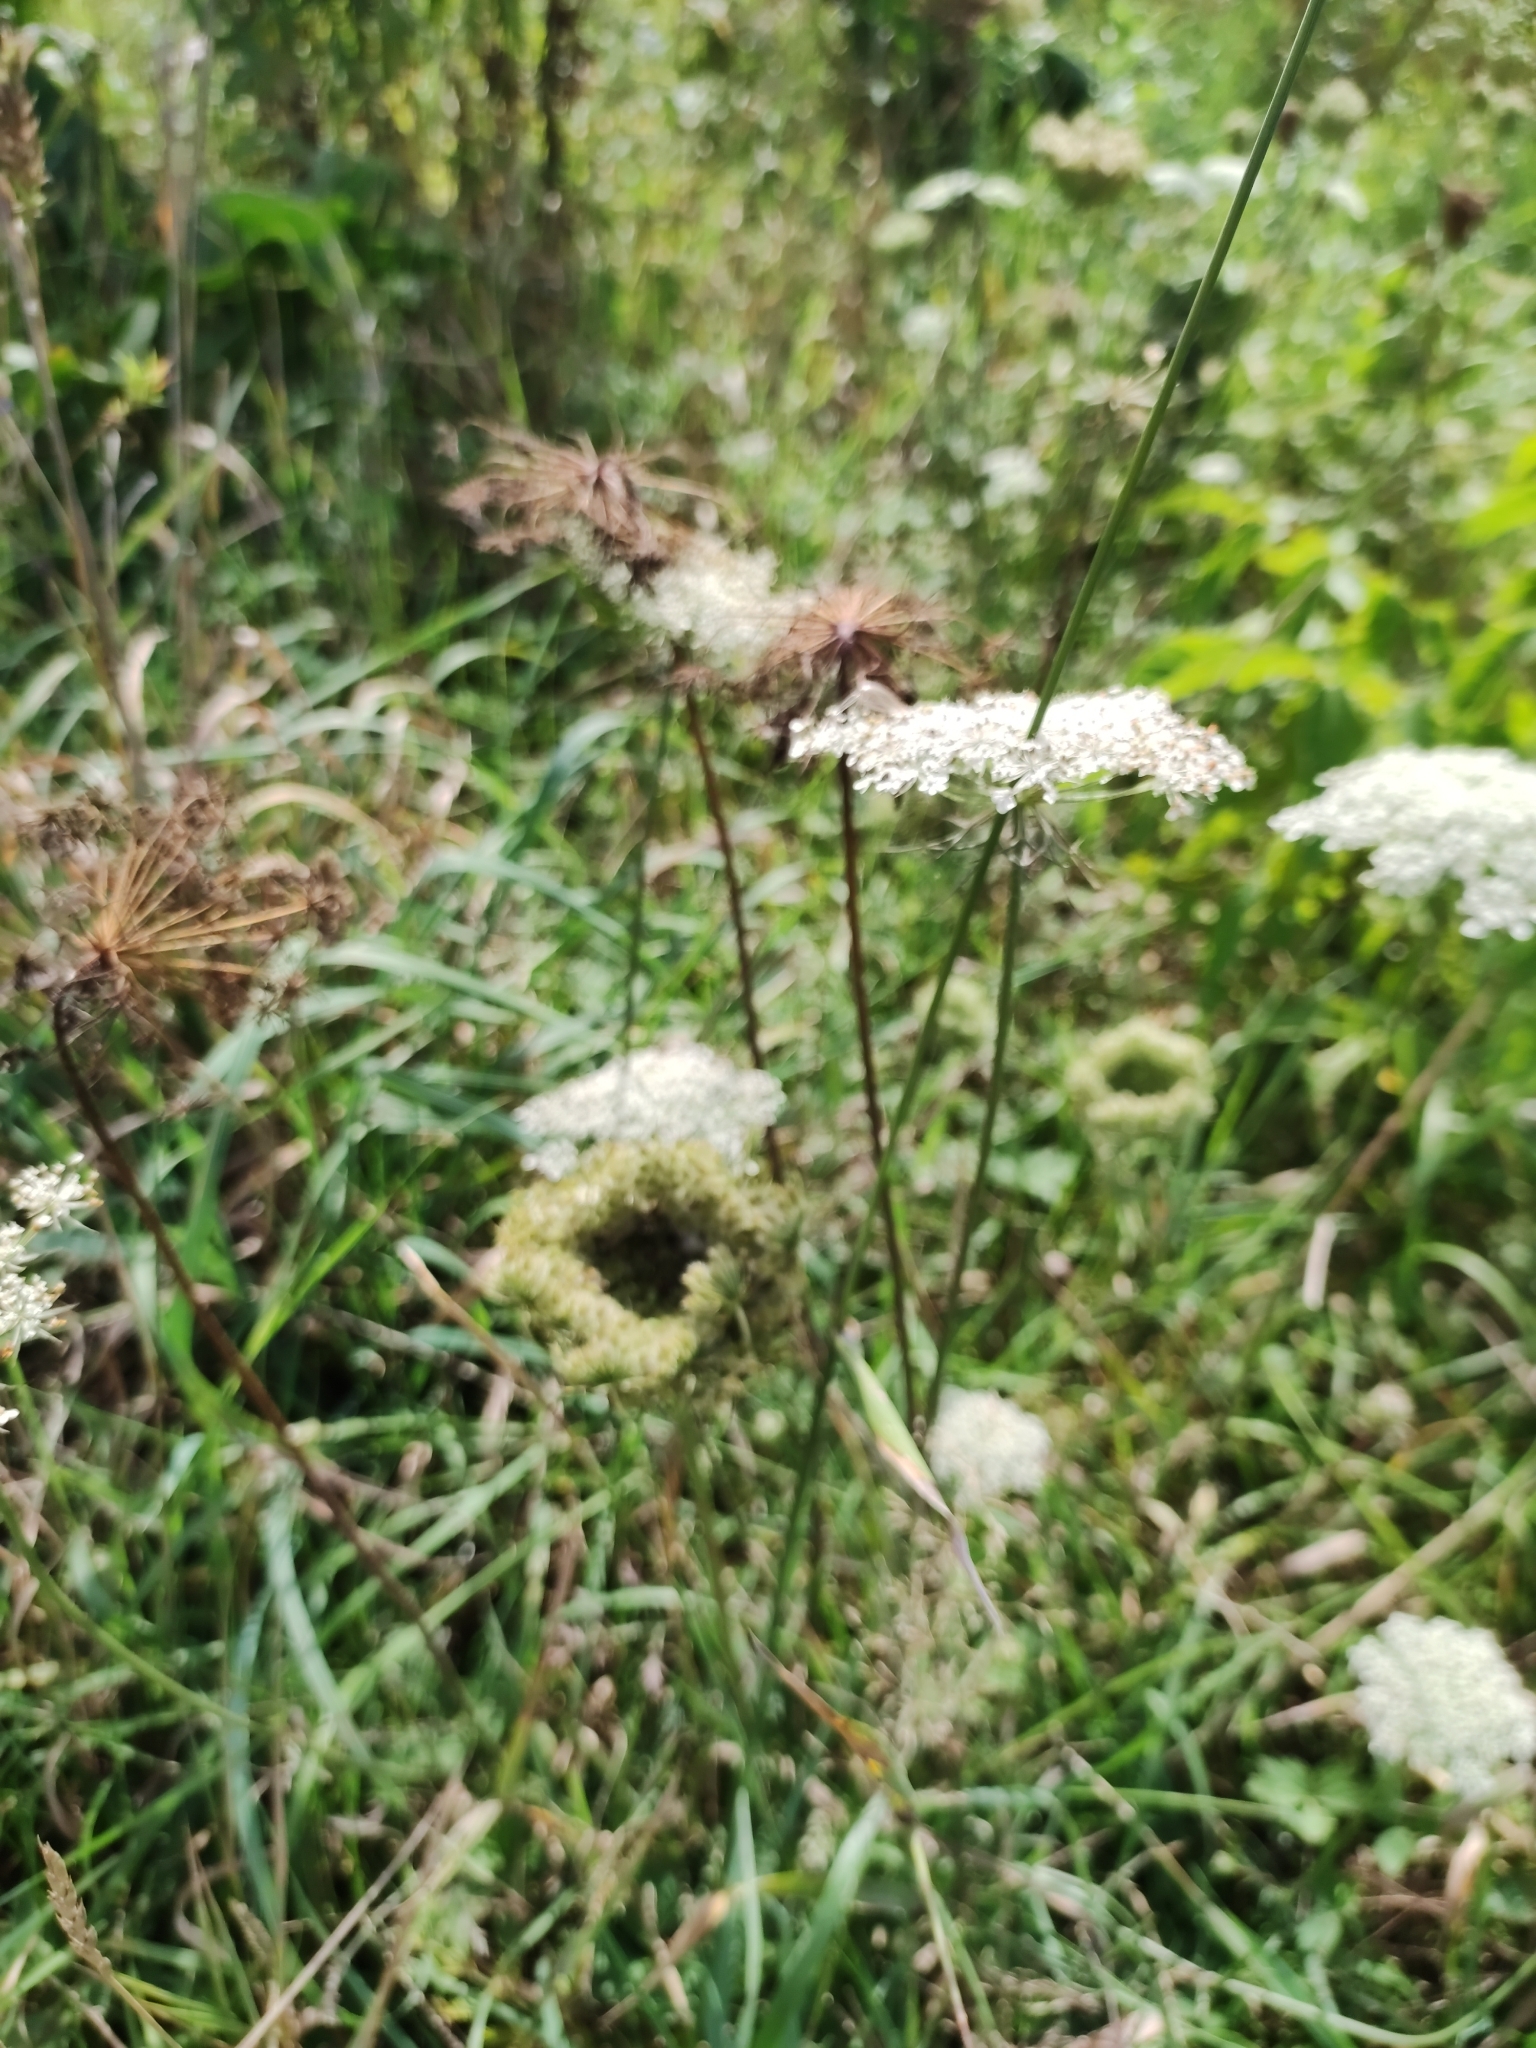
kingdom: Plantae
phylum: Tracheophyta
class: Magnoliopsida
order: Apiales
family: Apiaceae
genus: Daucus
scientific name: Daucus carota
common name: Wild carrot
